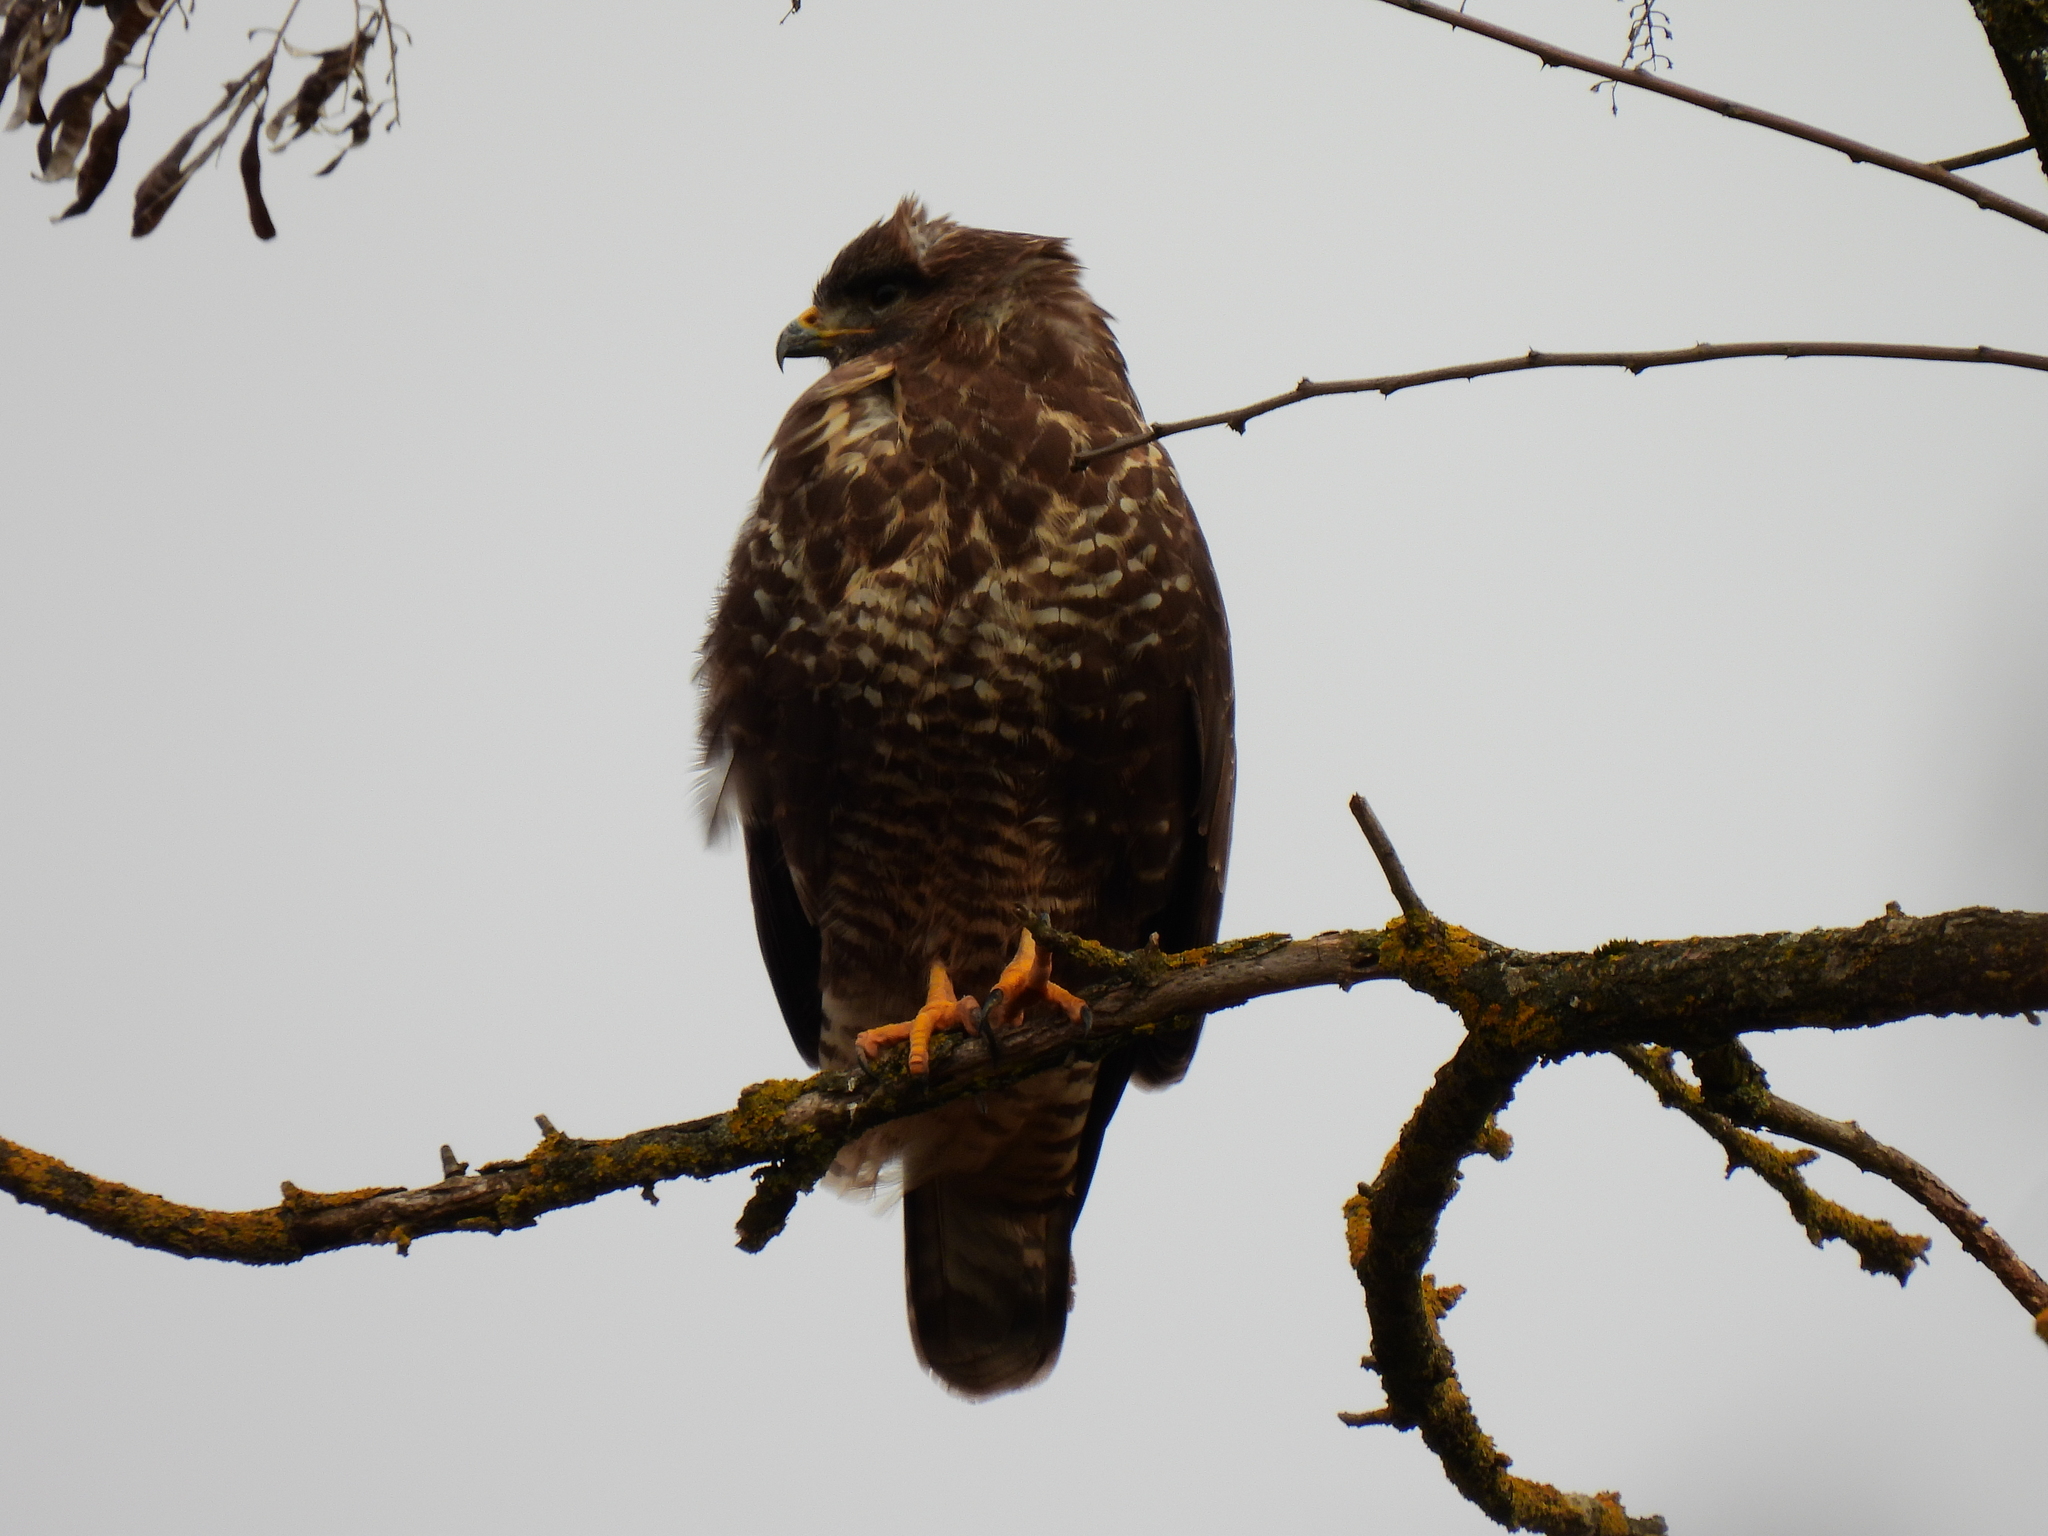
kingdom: Animalia
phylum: Chordata
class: Aves
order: Accipitriformes
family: Accipitridae
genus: Buteo
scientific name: Buteo buteo
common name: Common buzzard
